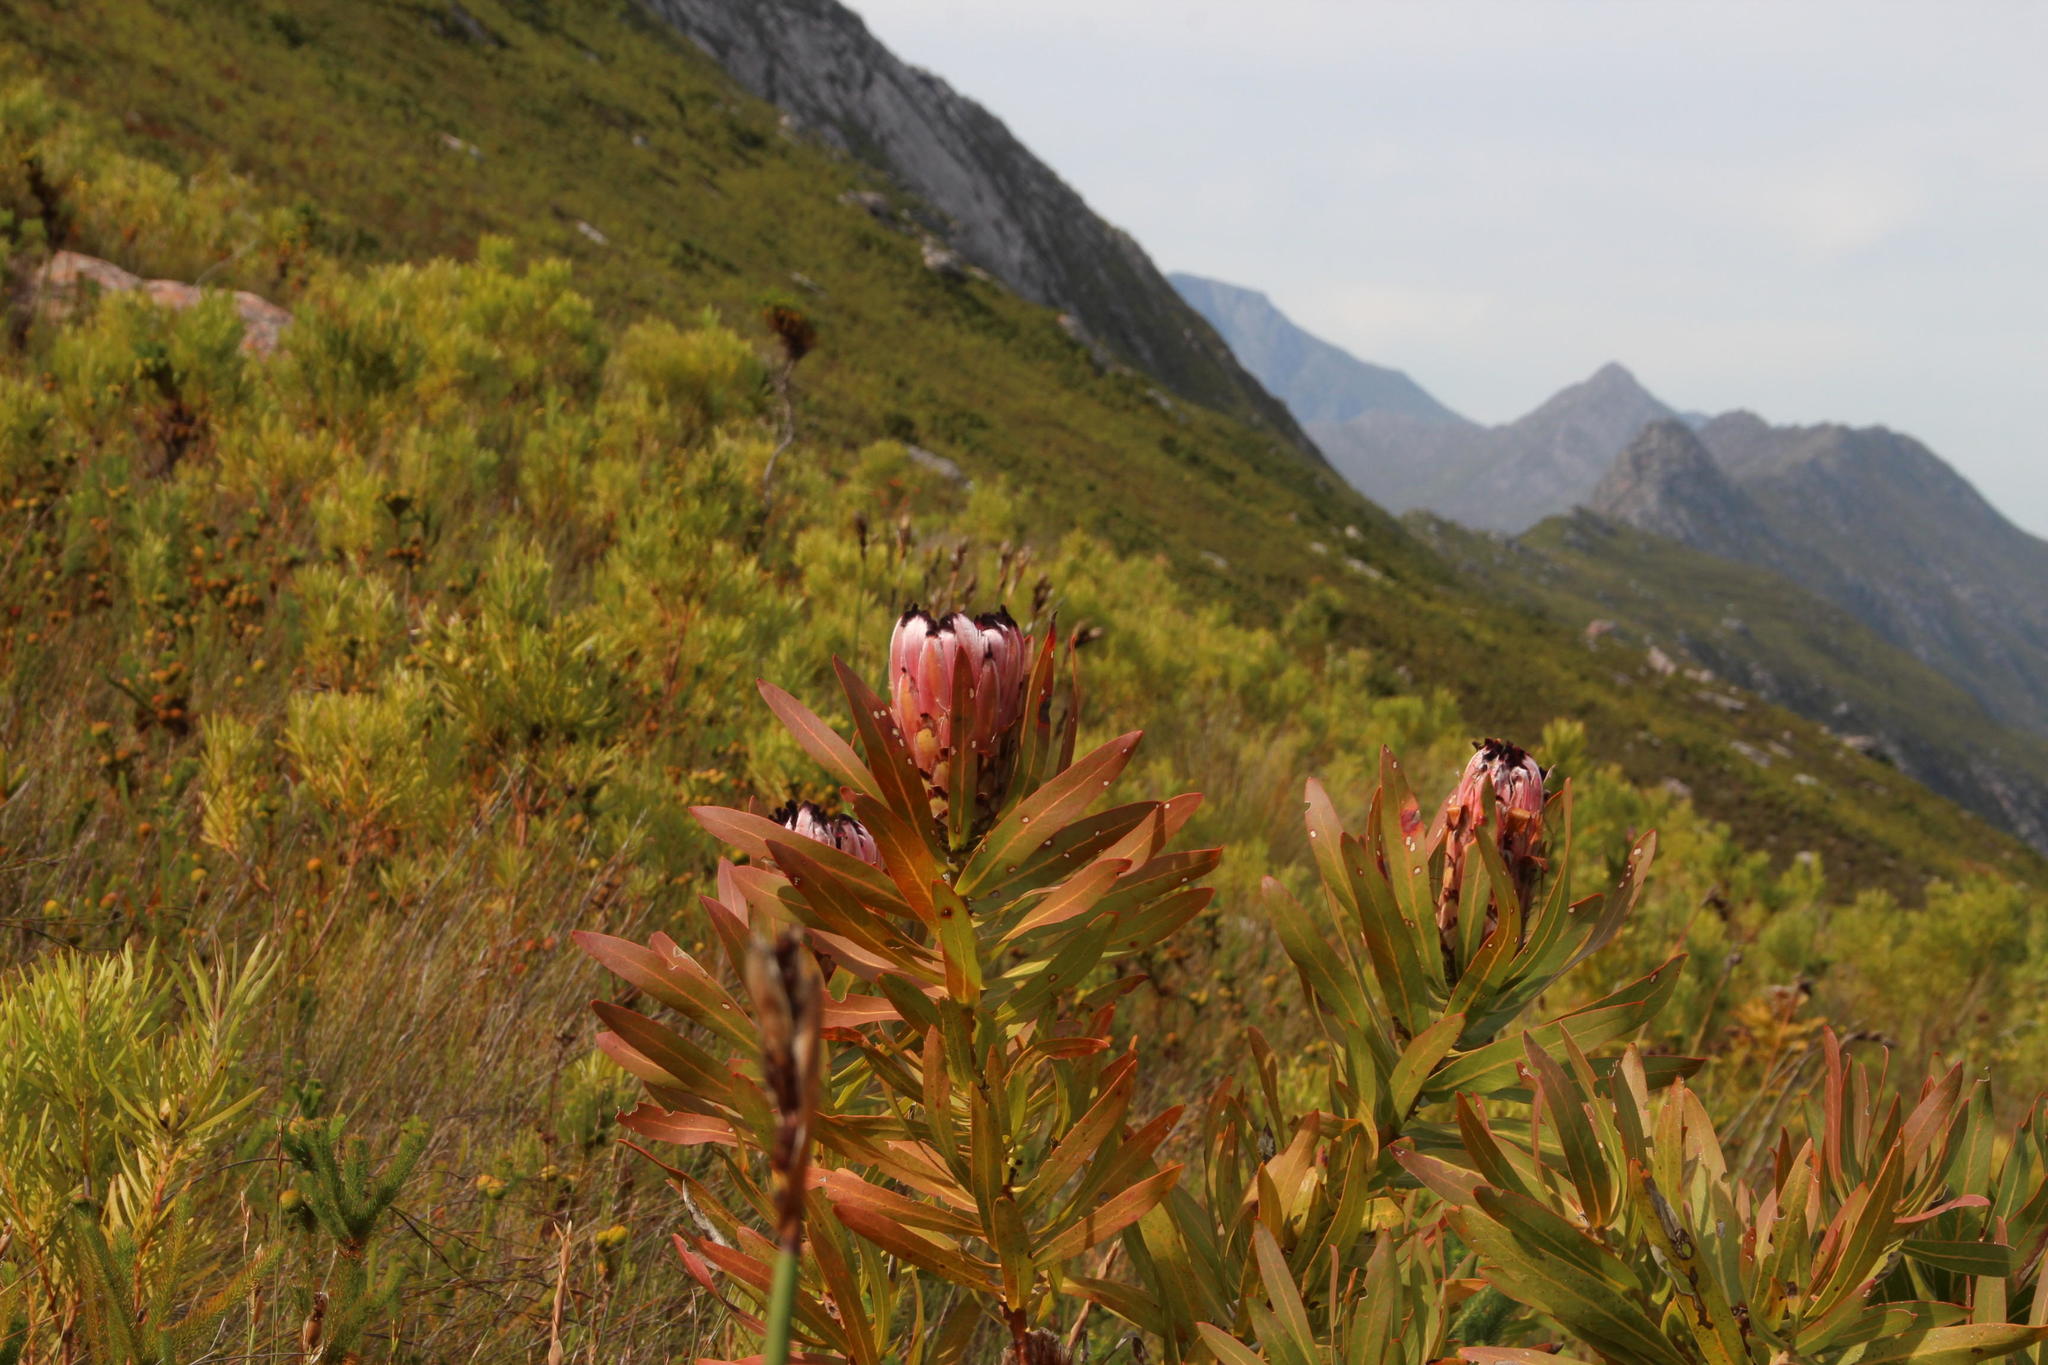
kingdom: Plantae
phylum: Tracheophyta
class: Magnoliopsida
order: Proteales
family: Proteaceae
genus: Protea
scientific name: Protea neriifolia
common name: Blue sugarbush
